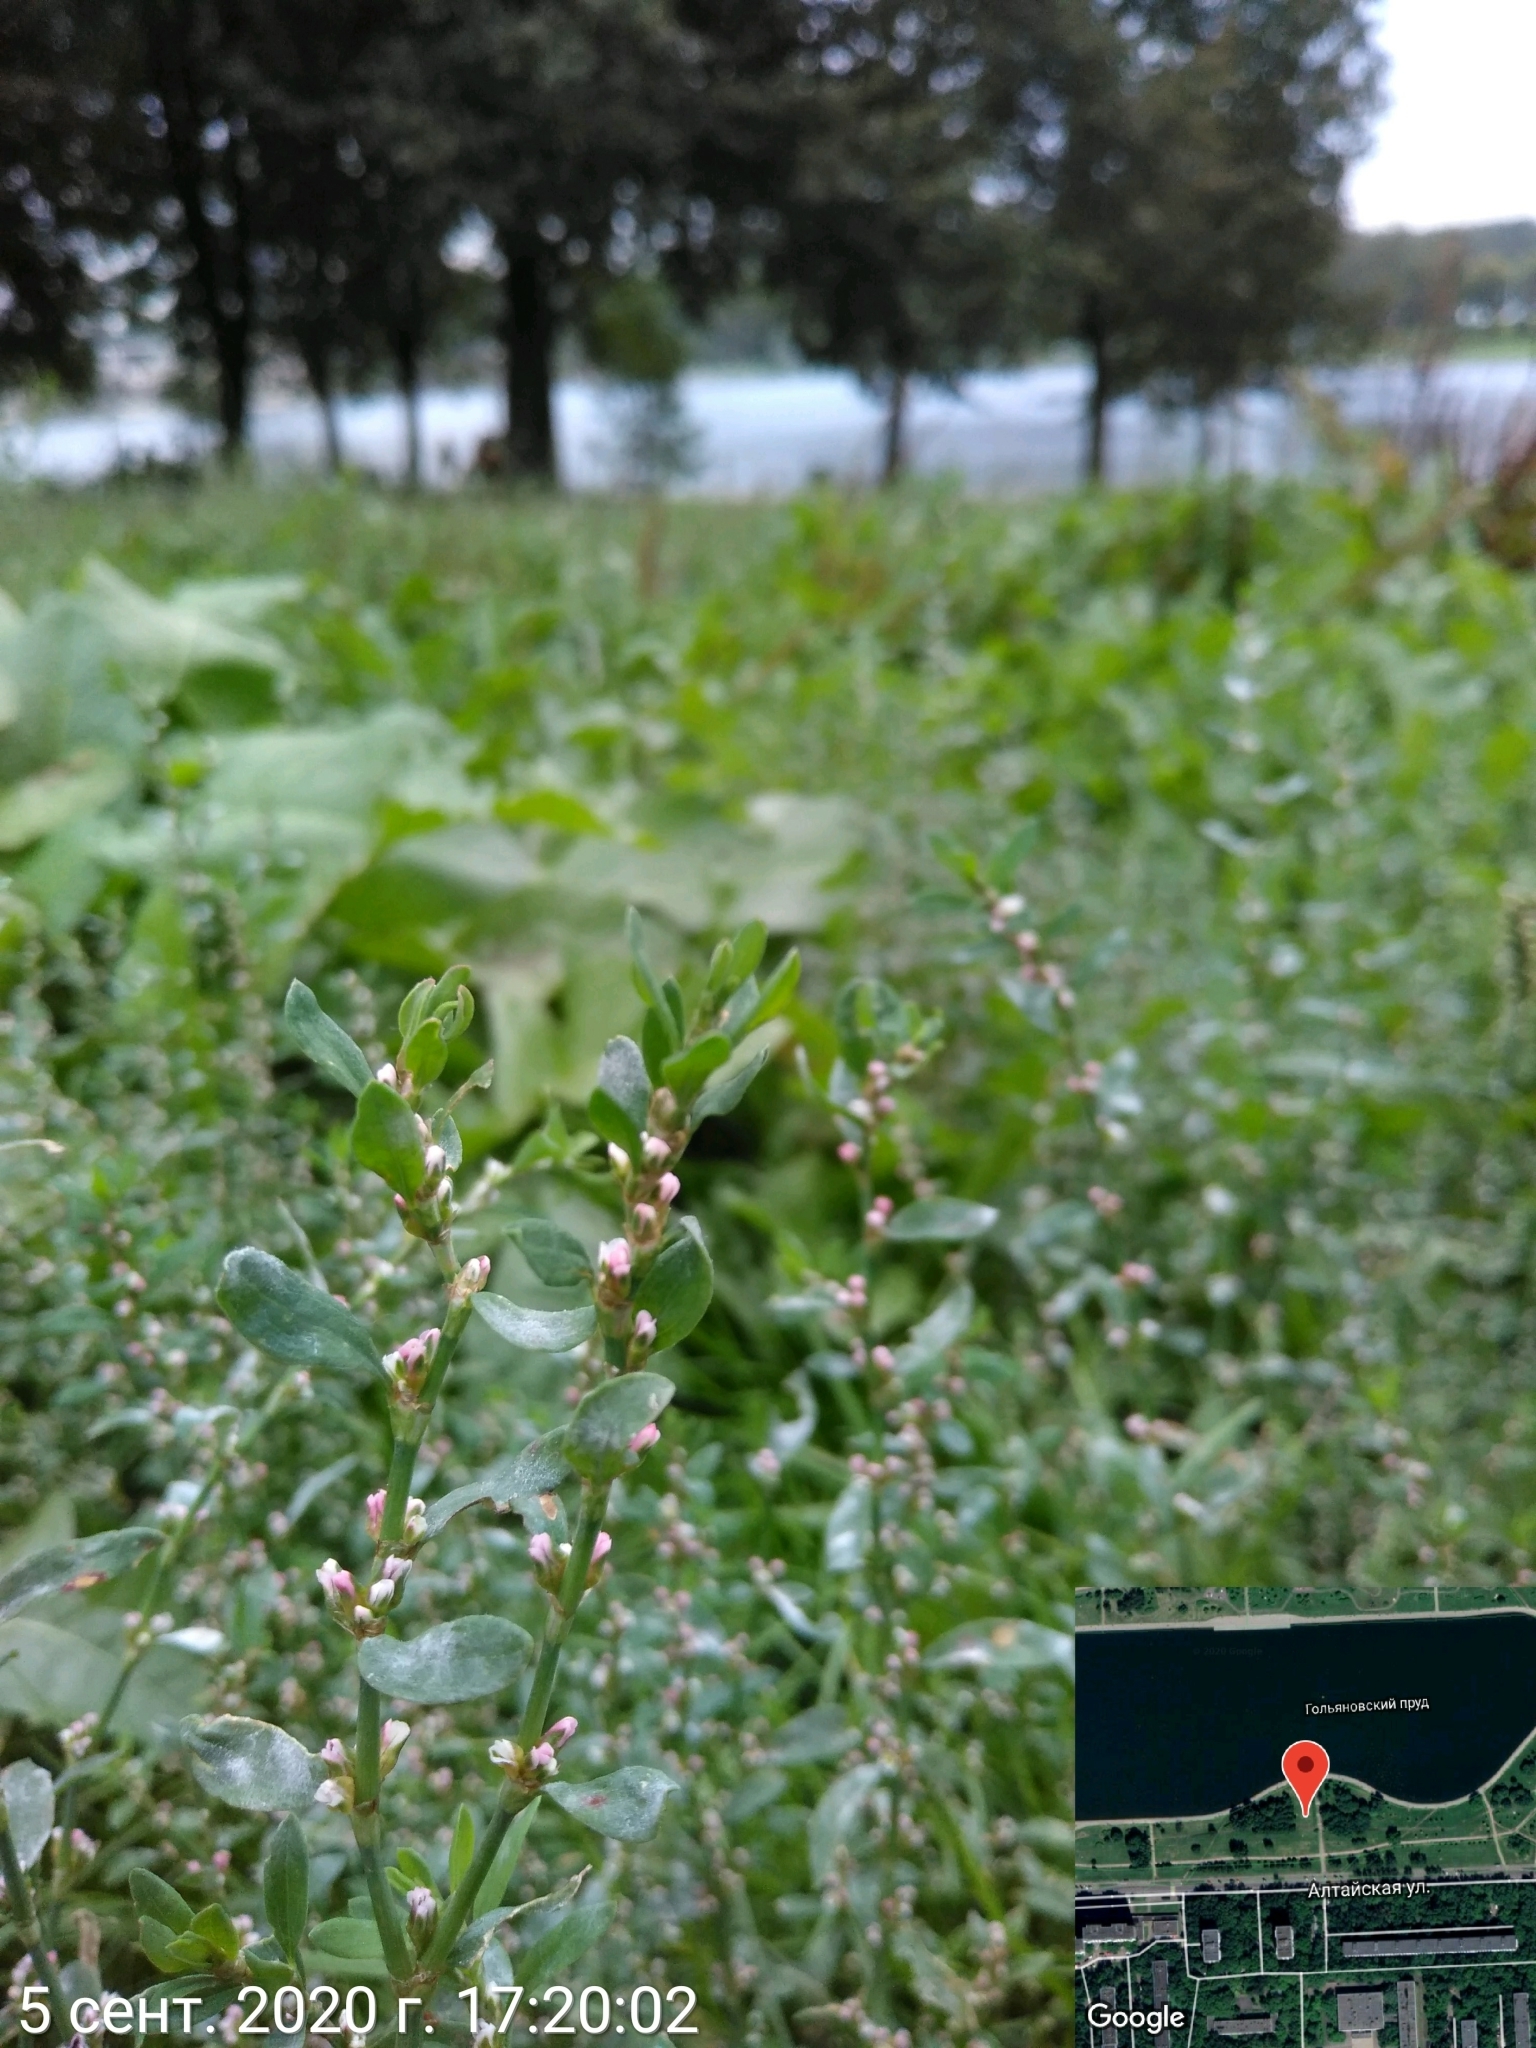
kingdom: Plantae
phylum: Tracheophyta
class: Magnoliopsida
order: Caryophyllales
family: Polygonaceae
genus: Polygonum
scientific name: Polygonum
